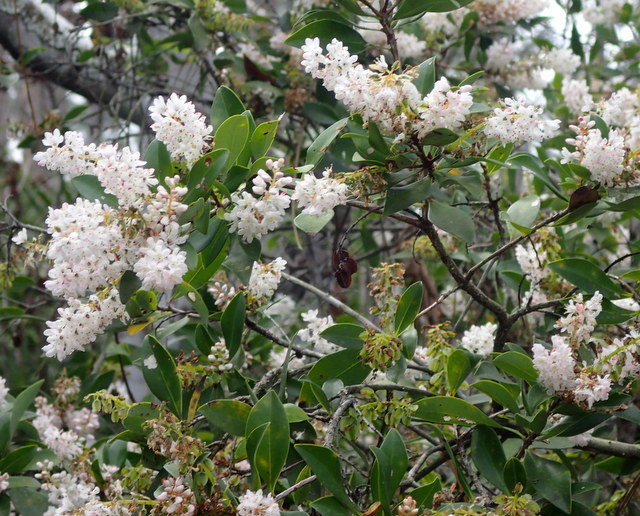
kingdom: Plantae
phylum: Tracheophyta
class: Magnoliopsida
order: Ericales
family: Cyrillaceae
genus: Cliftonia
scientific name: Cliftonia monophylla
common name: Titi
